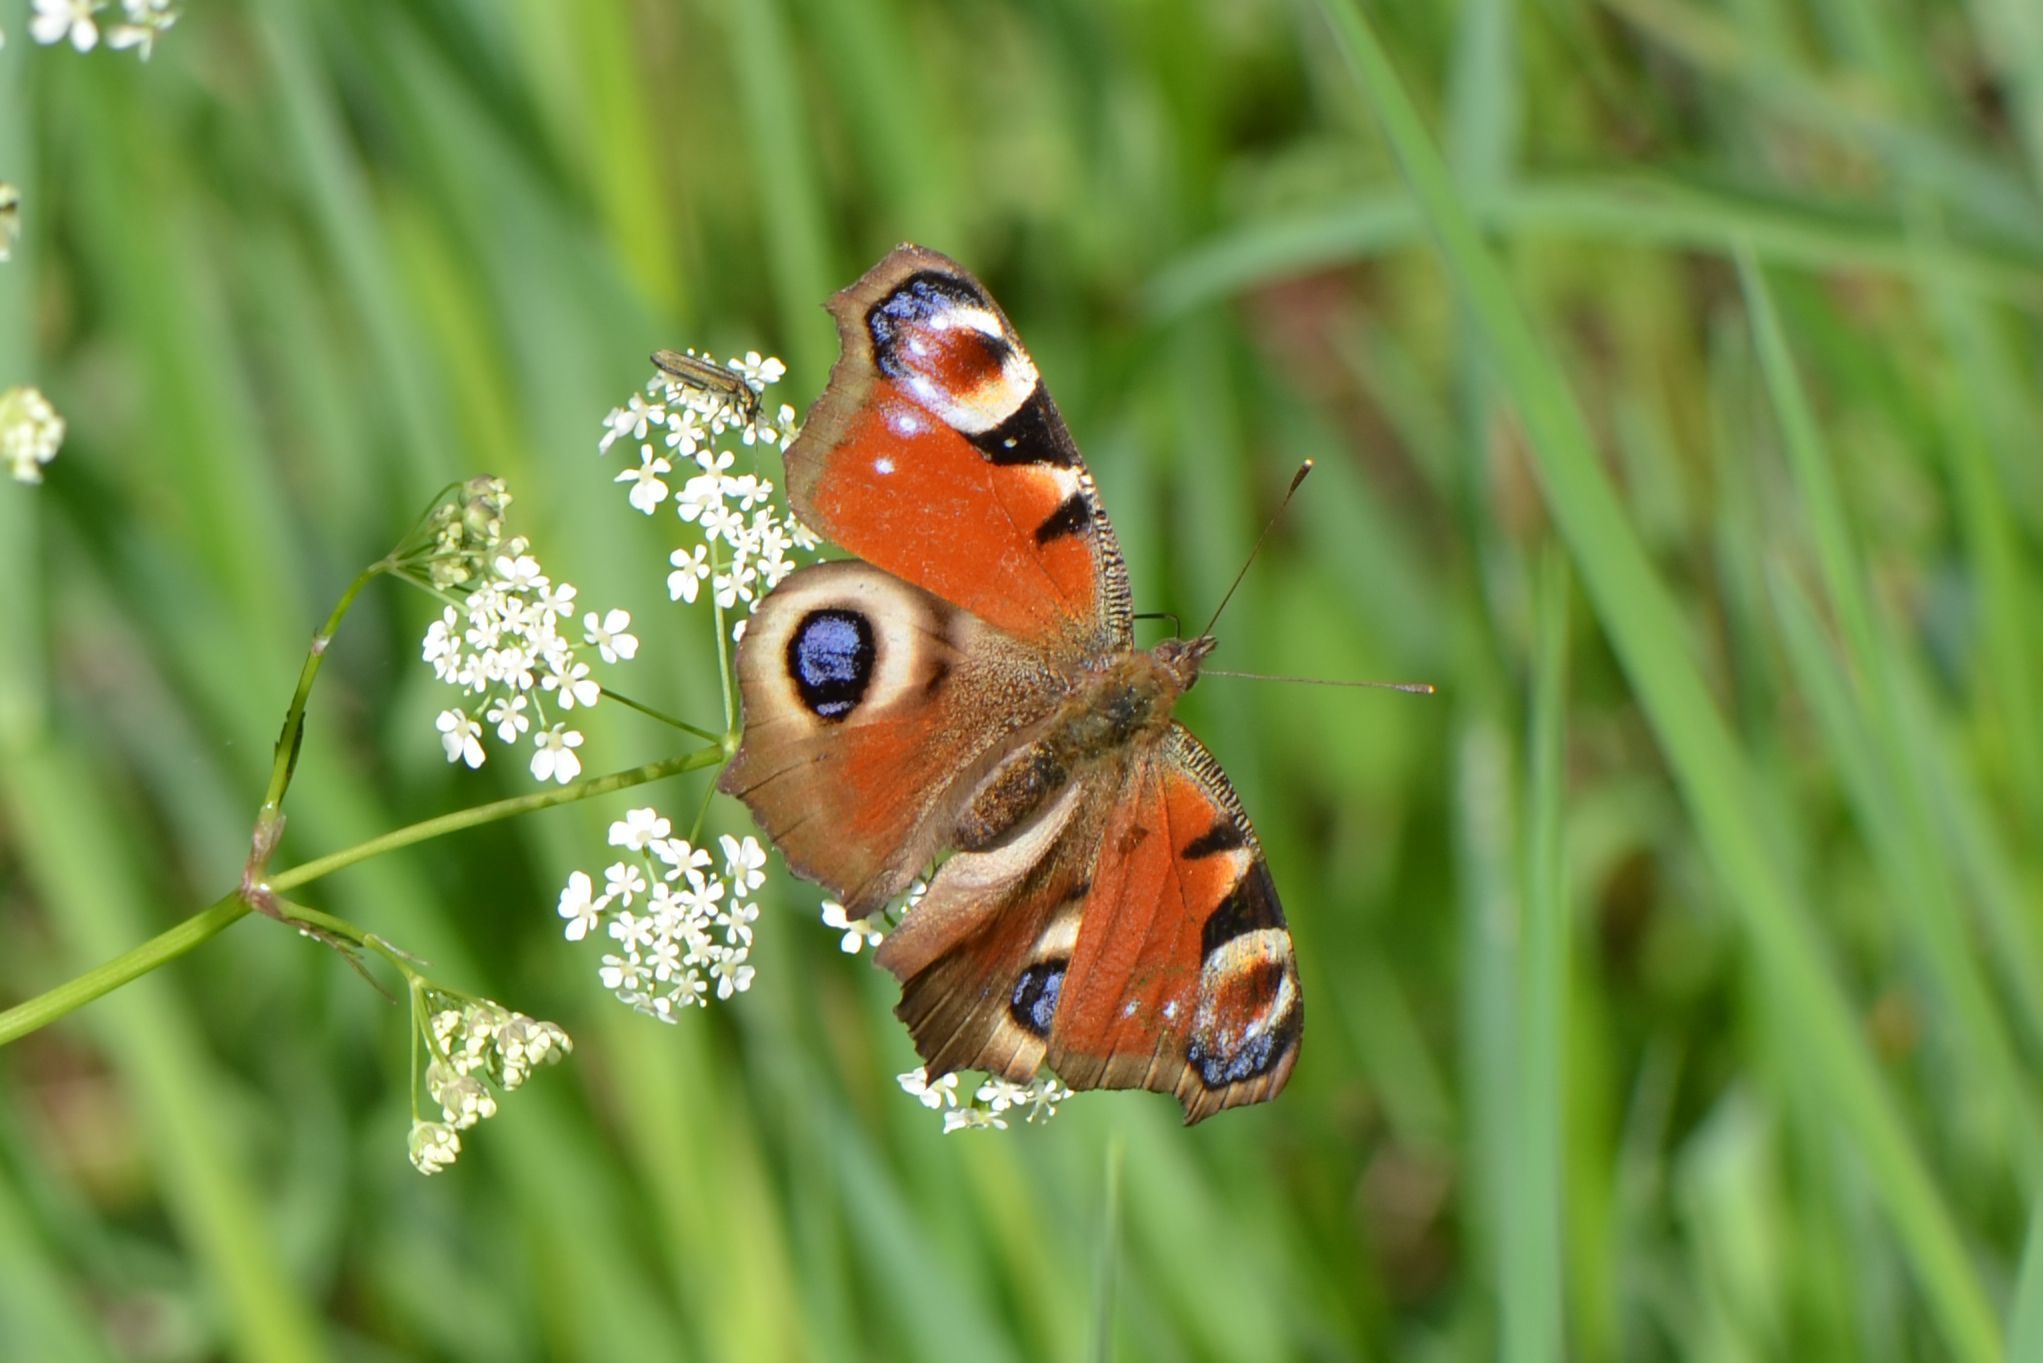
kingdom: Animalia
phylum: Arthropoda
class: Insecta
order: Lepidoptera
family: Nymphalidae
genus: Aglais
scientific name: Aglais io
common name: Peacock
